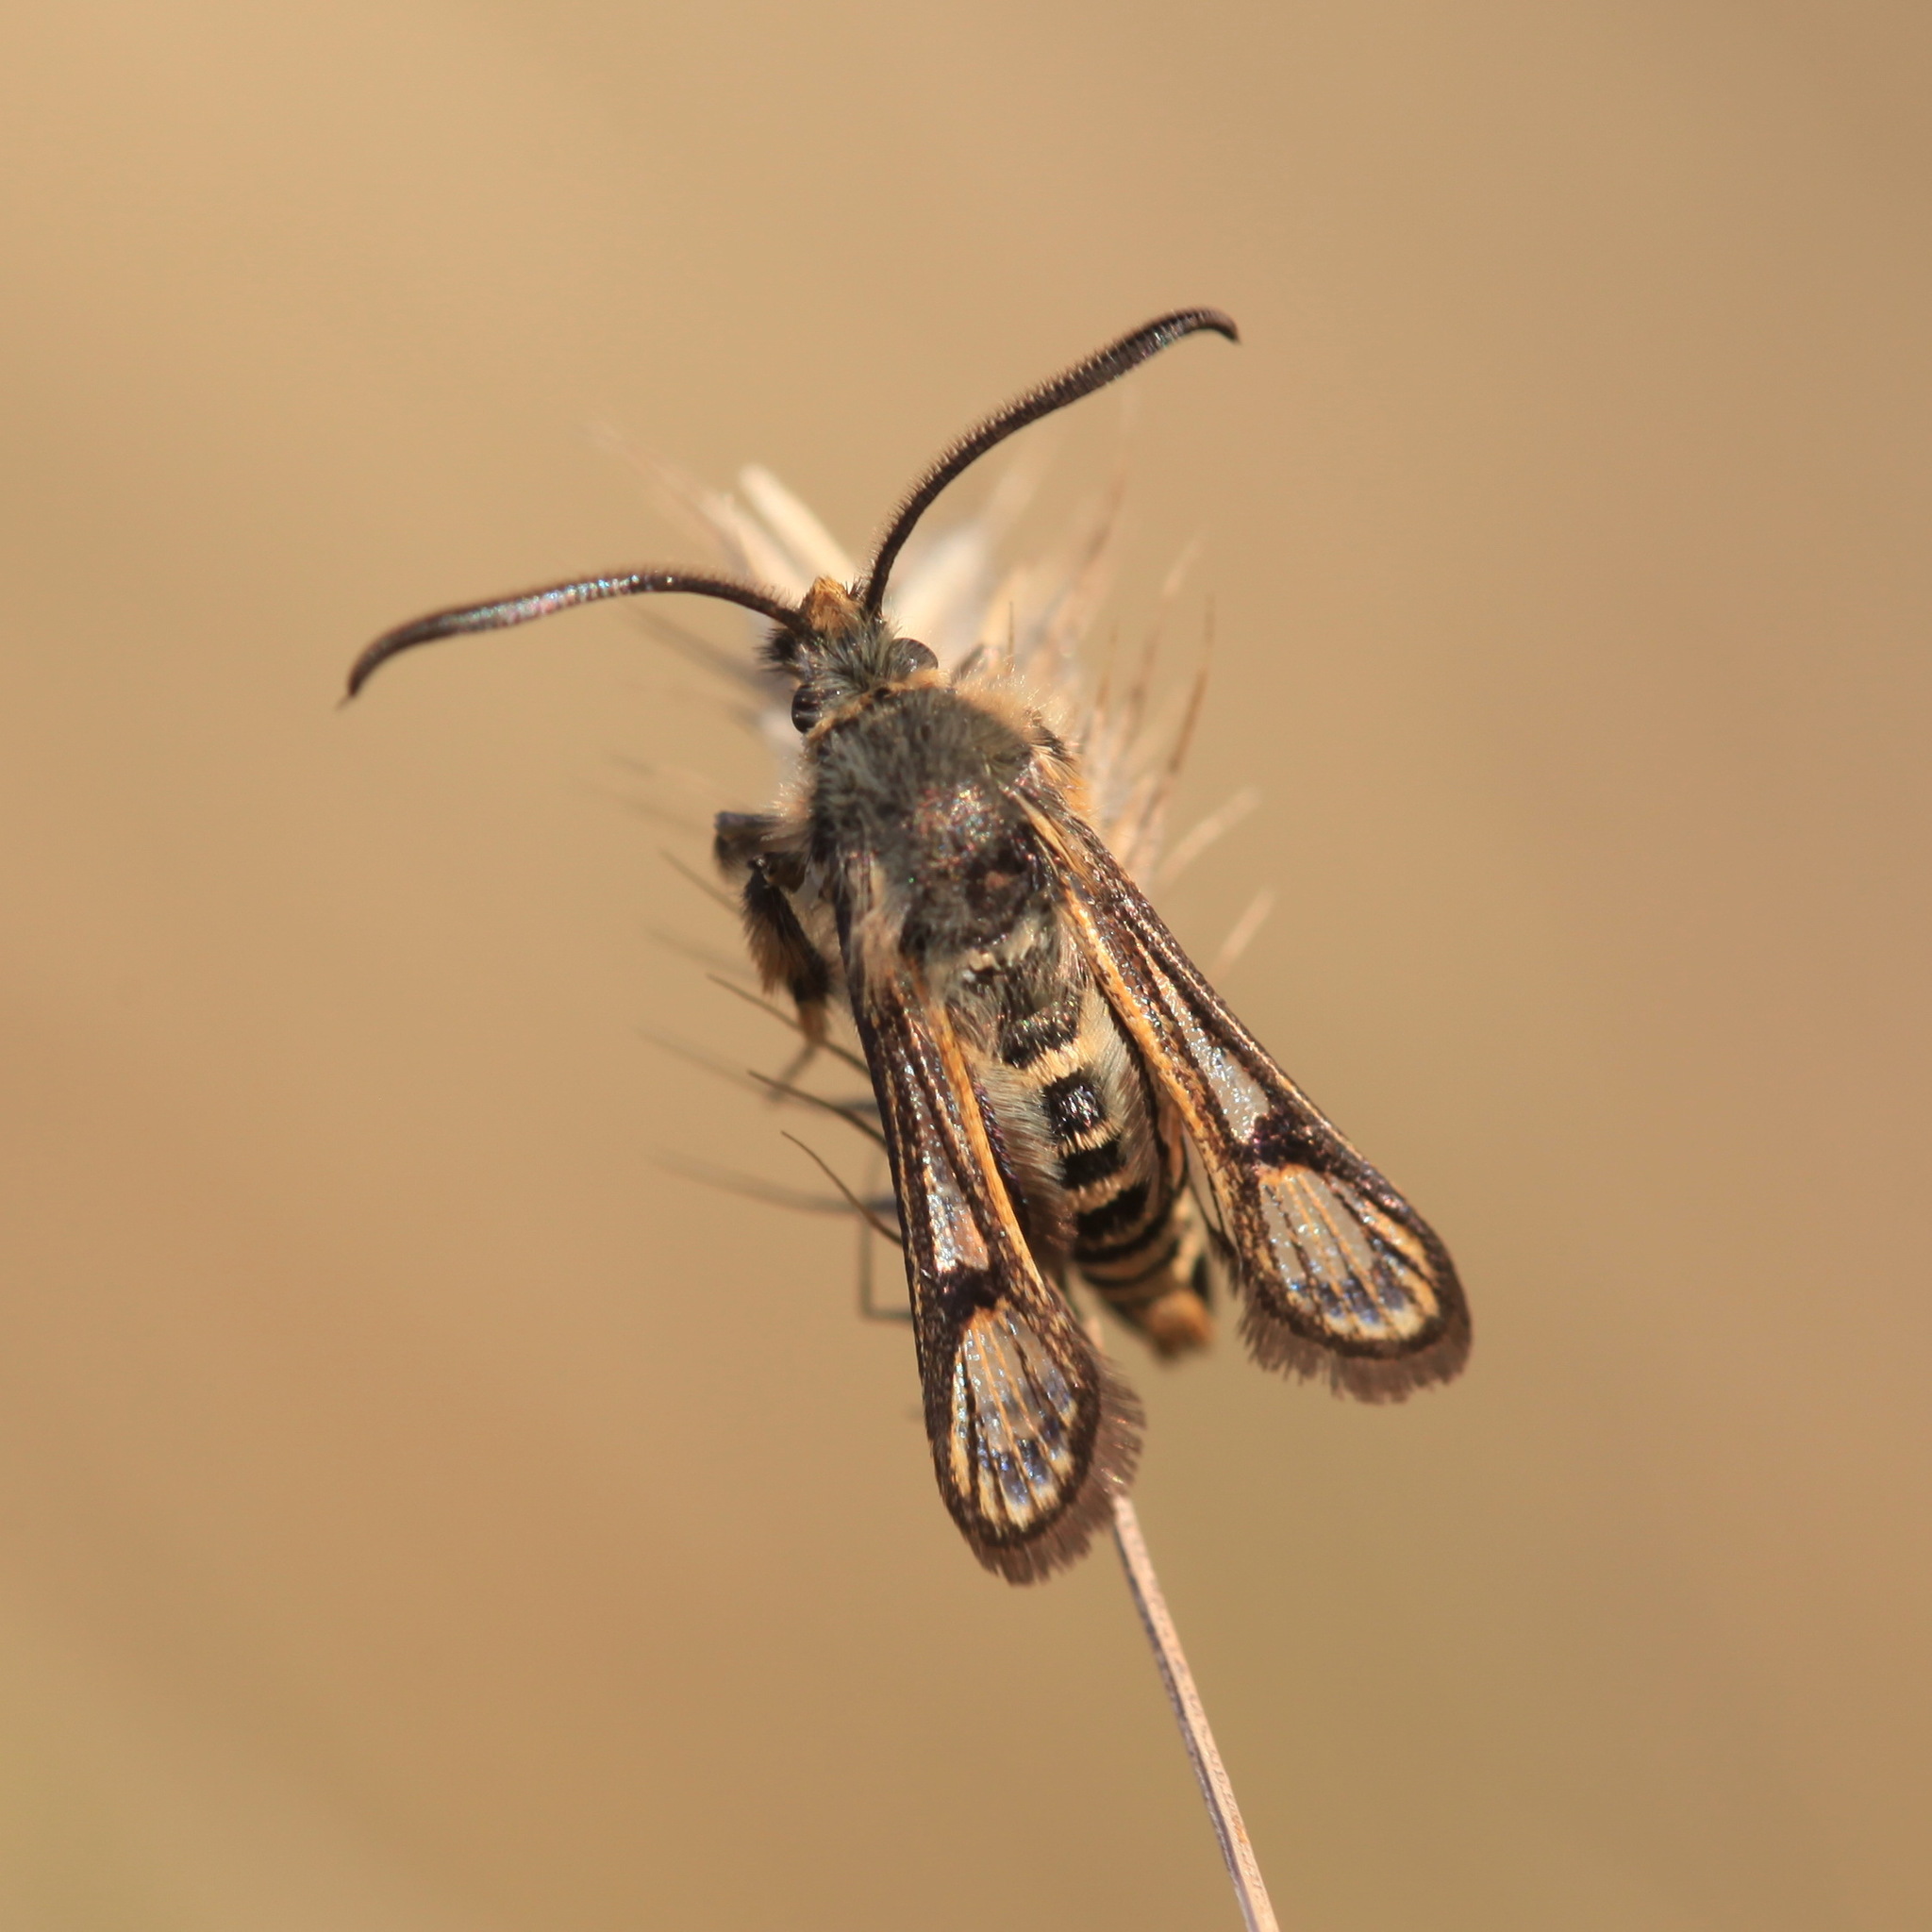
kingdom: Animalia
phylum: Arthropoda
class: Insecta
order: Lepidoptera
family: Sesiidae
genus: Bembecia
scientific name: Bembecia puella
